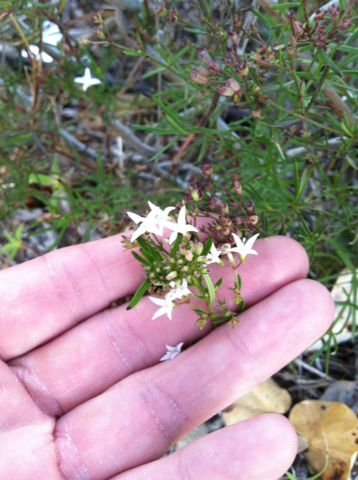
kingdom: Plantae
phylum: Tracheophyta
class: Magnoliopsida
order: Gentianales
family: Rubiaceae
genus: Stenaria
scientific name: Stenaria nigricans
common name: Diamondflowers
